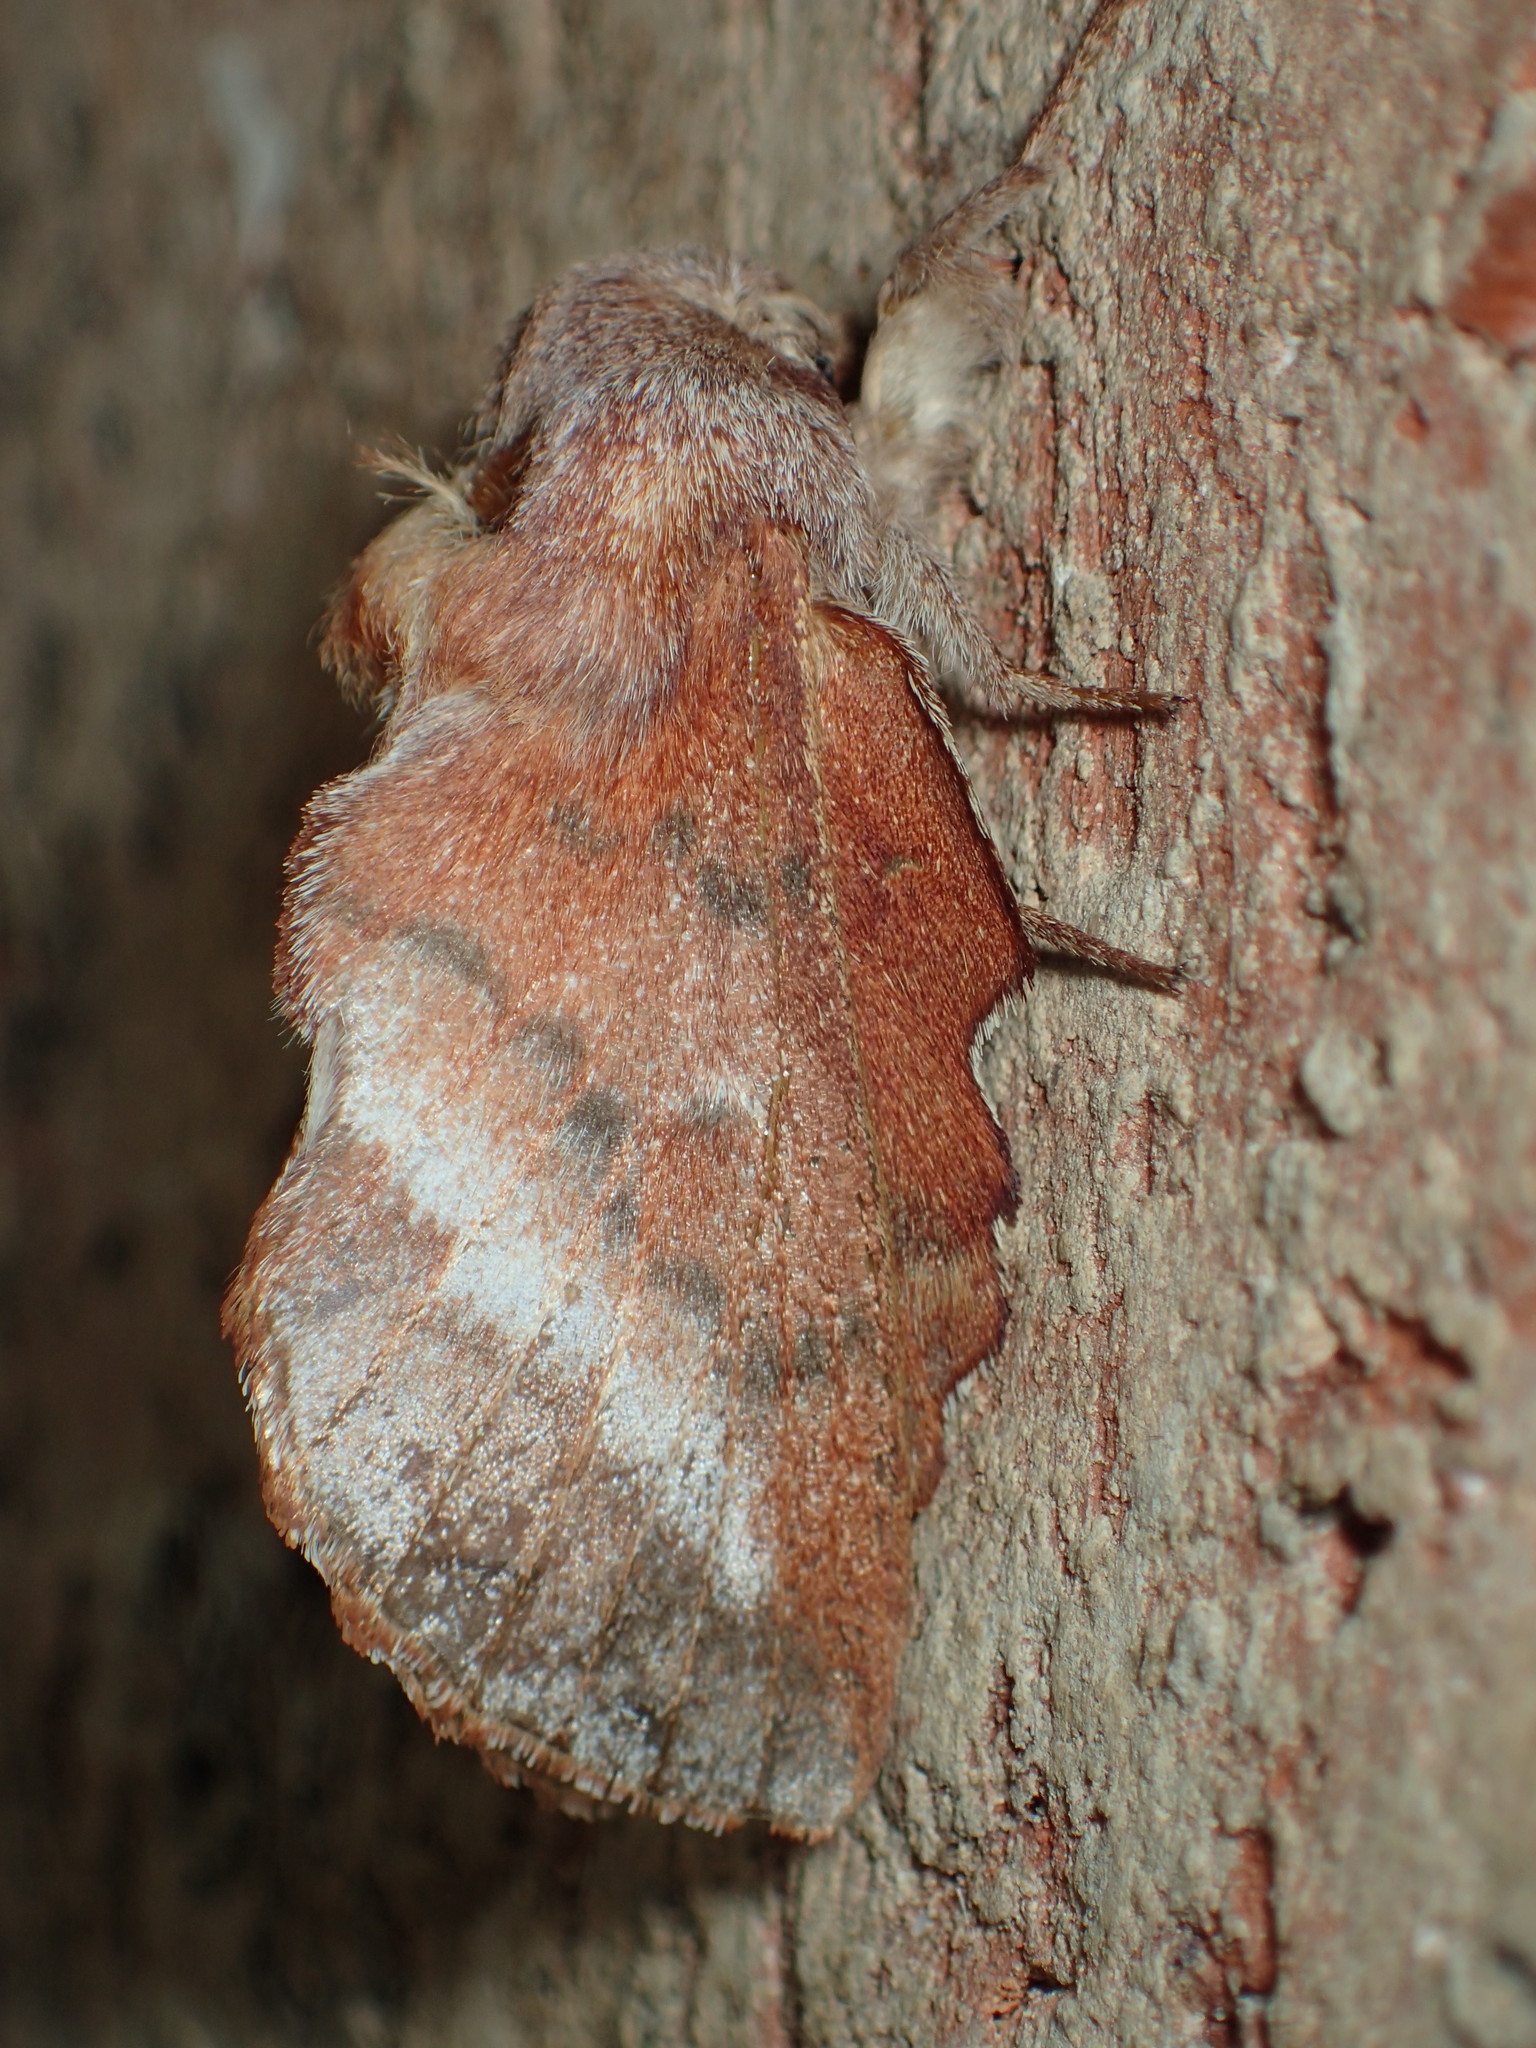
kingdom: Animalia
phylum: Arthropoda
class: Insecta
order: Lepidoptera
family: Lasiocampidae
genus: Phyllodesma
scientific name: Phyllodesma americana
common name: American lappet moth
